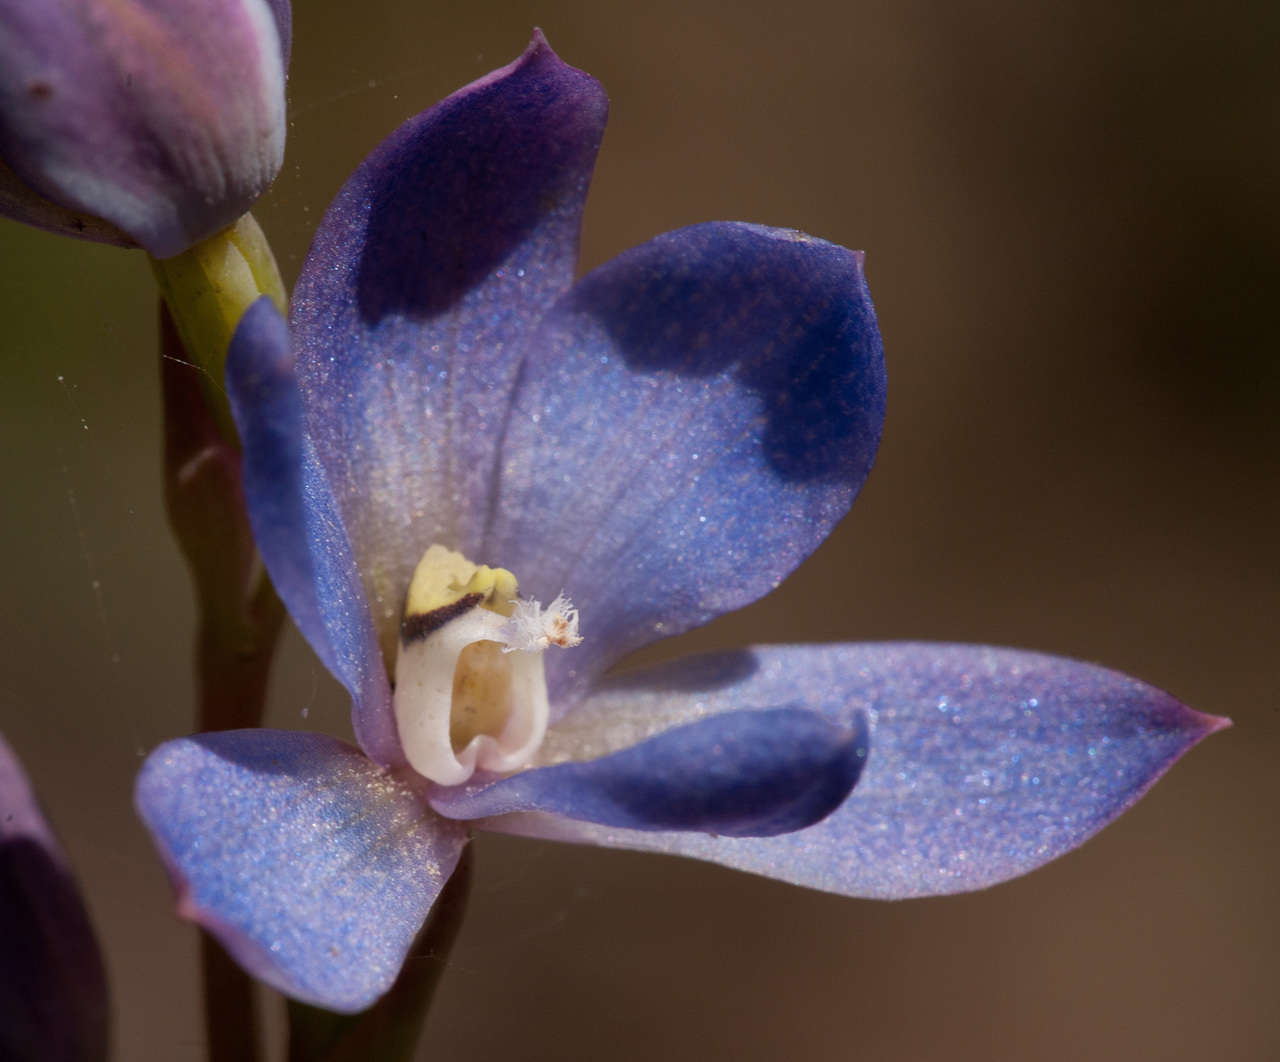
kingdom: Plantae
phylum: Tracheophyta
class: Liliopsida
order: Asparagales
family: Orchidaceae
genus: Thelymitra
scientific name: Thelymitra media
